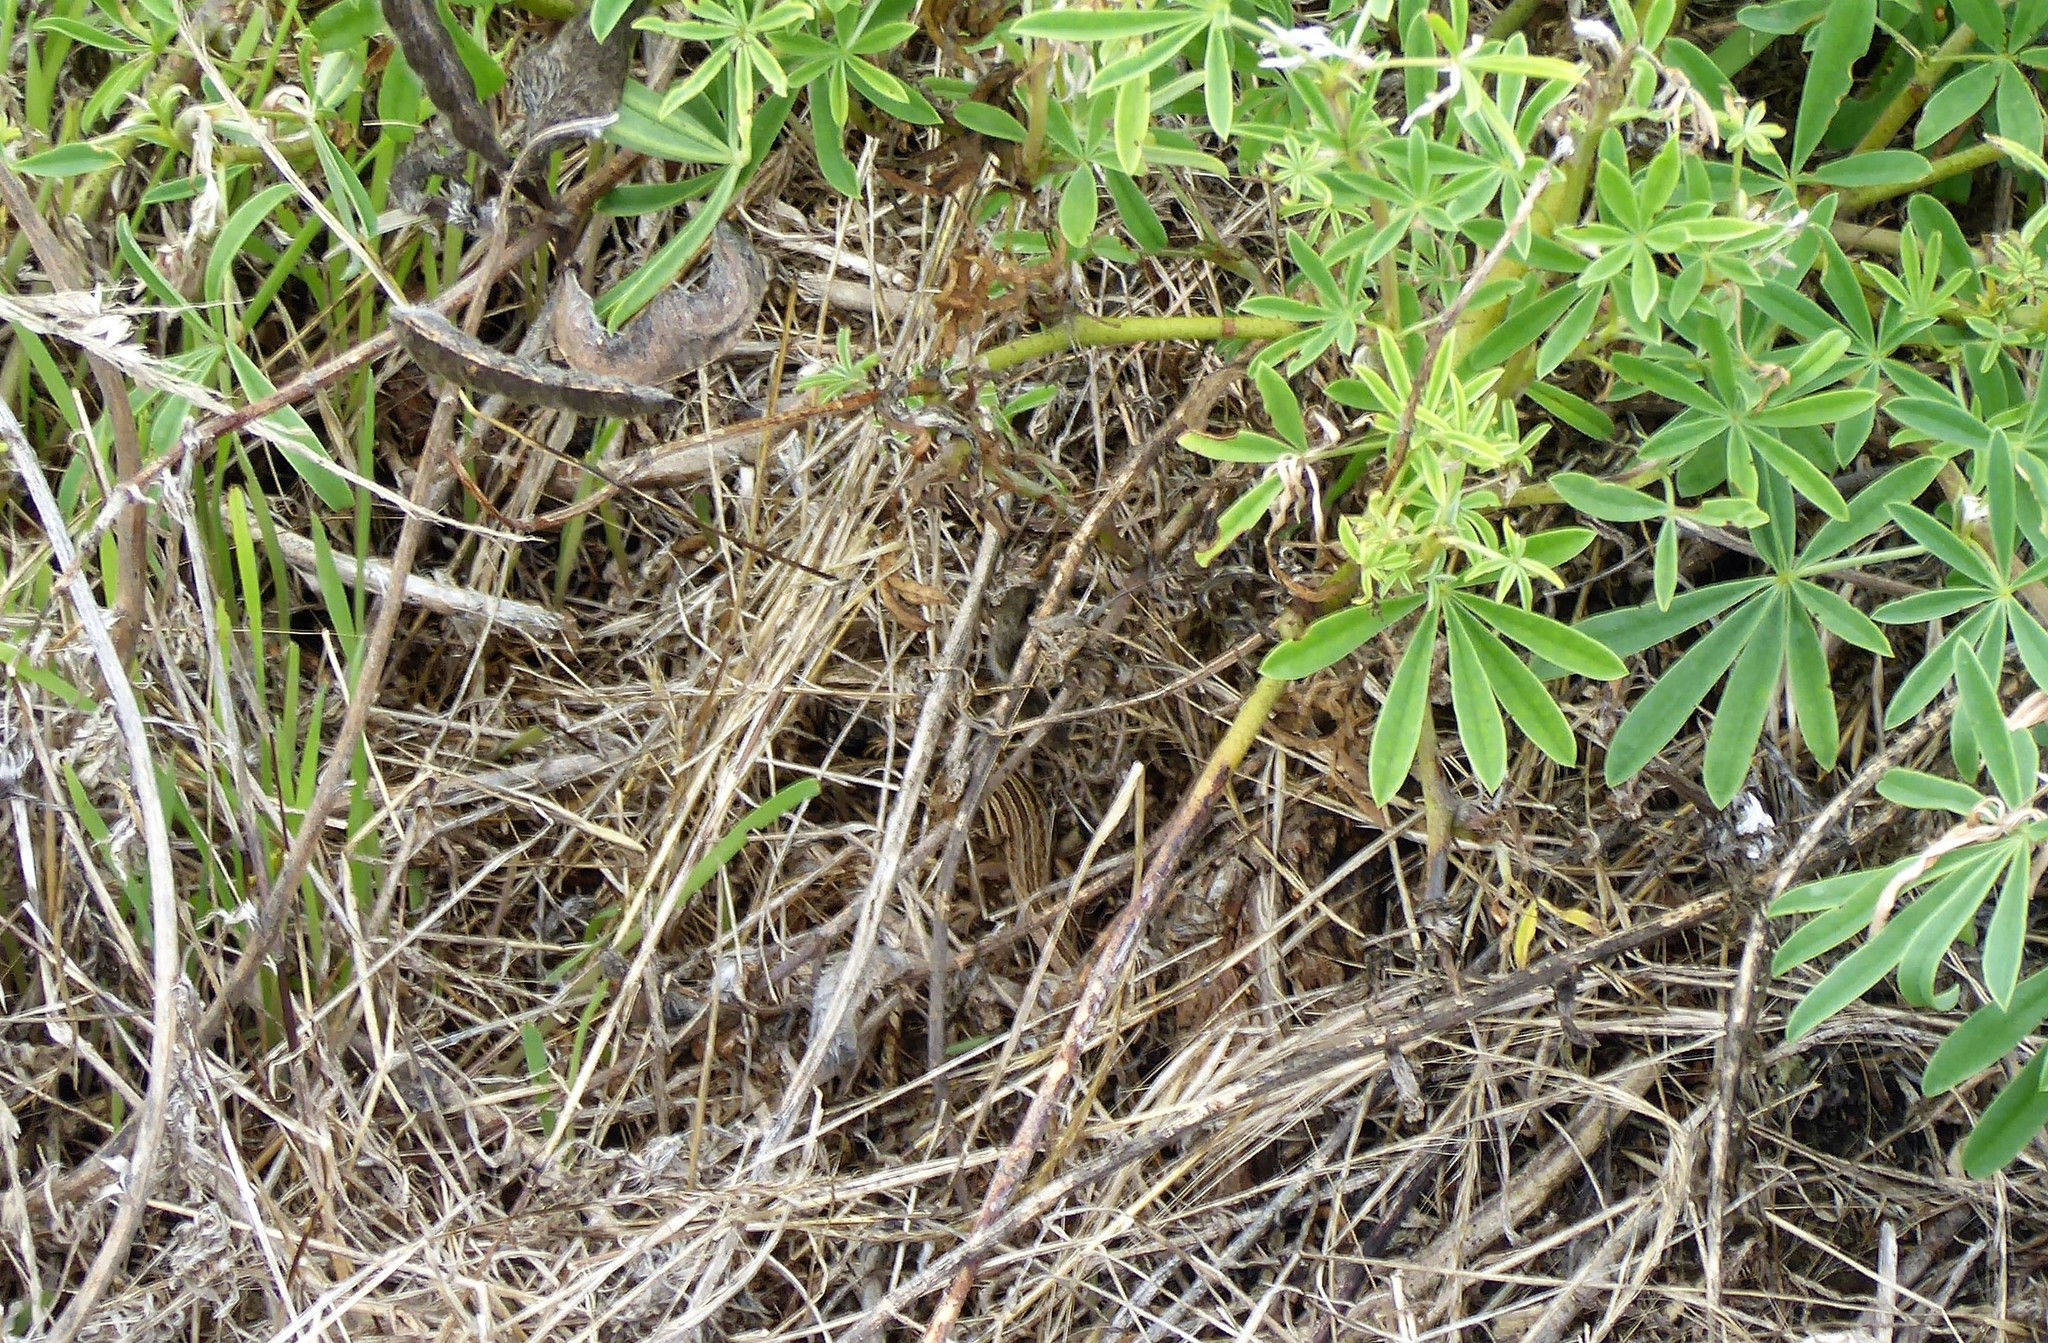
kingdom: Animalia
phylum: Chordata
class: Squamata
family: Scincidae
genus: Oligosoma
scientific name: Oligosoma polychroma
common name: Common new zealand skink
